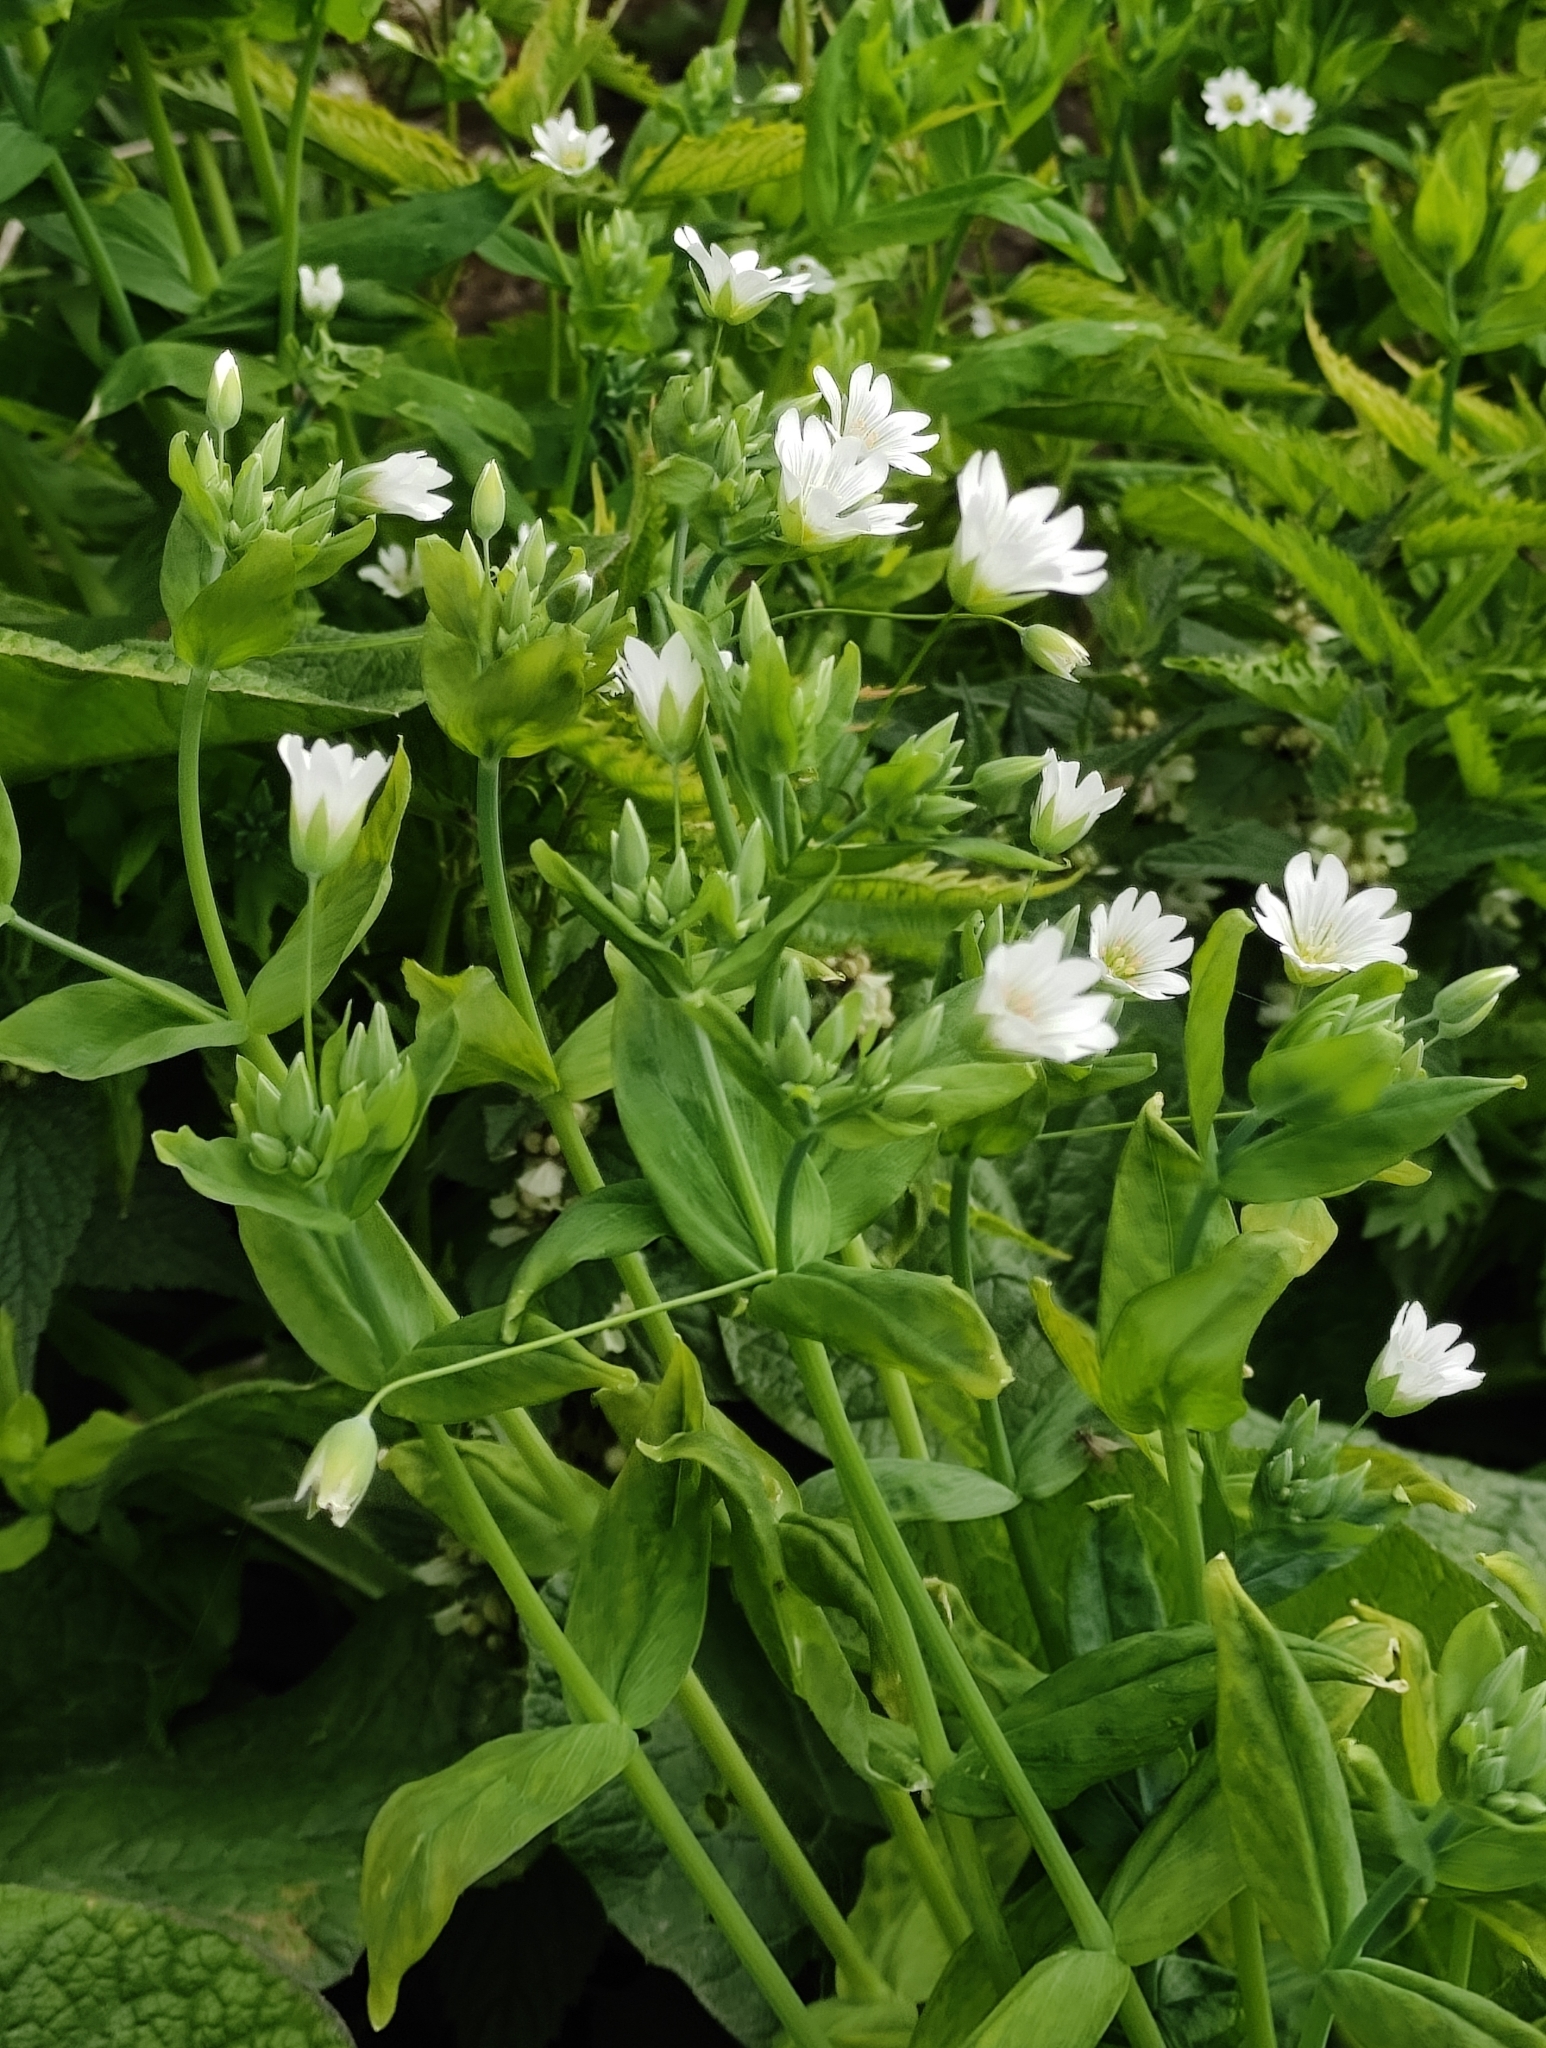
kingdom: Plantae
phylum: Tracheophyta
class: Magnoliopsida
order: Caryophyllales
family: Caryophyllaceae
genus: Cerastium
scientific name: Cerastium davuricum
